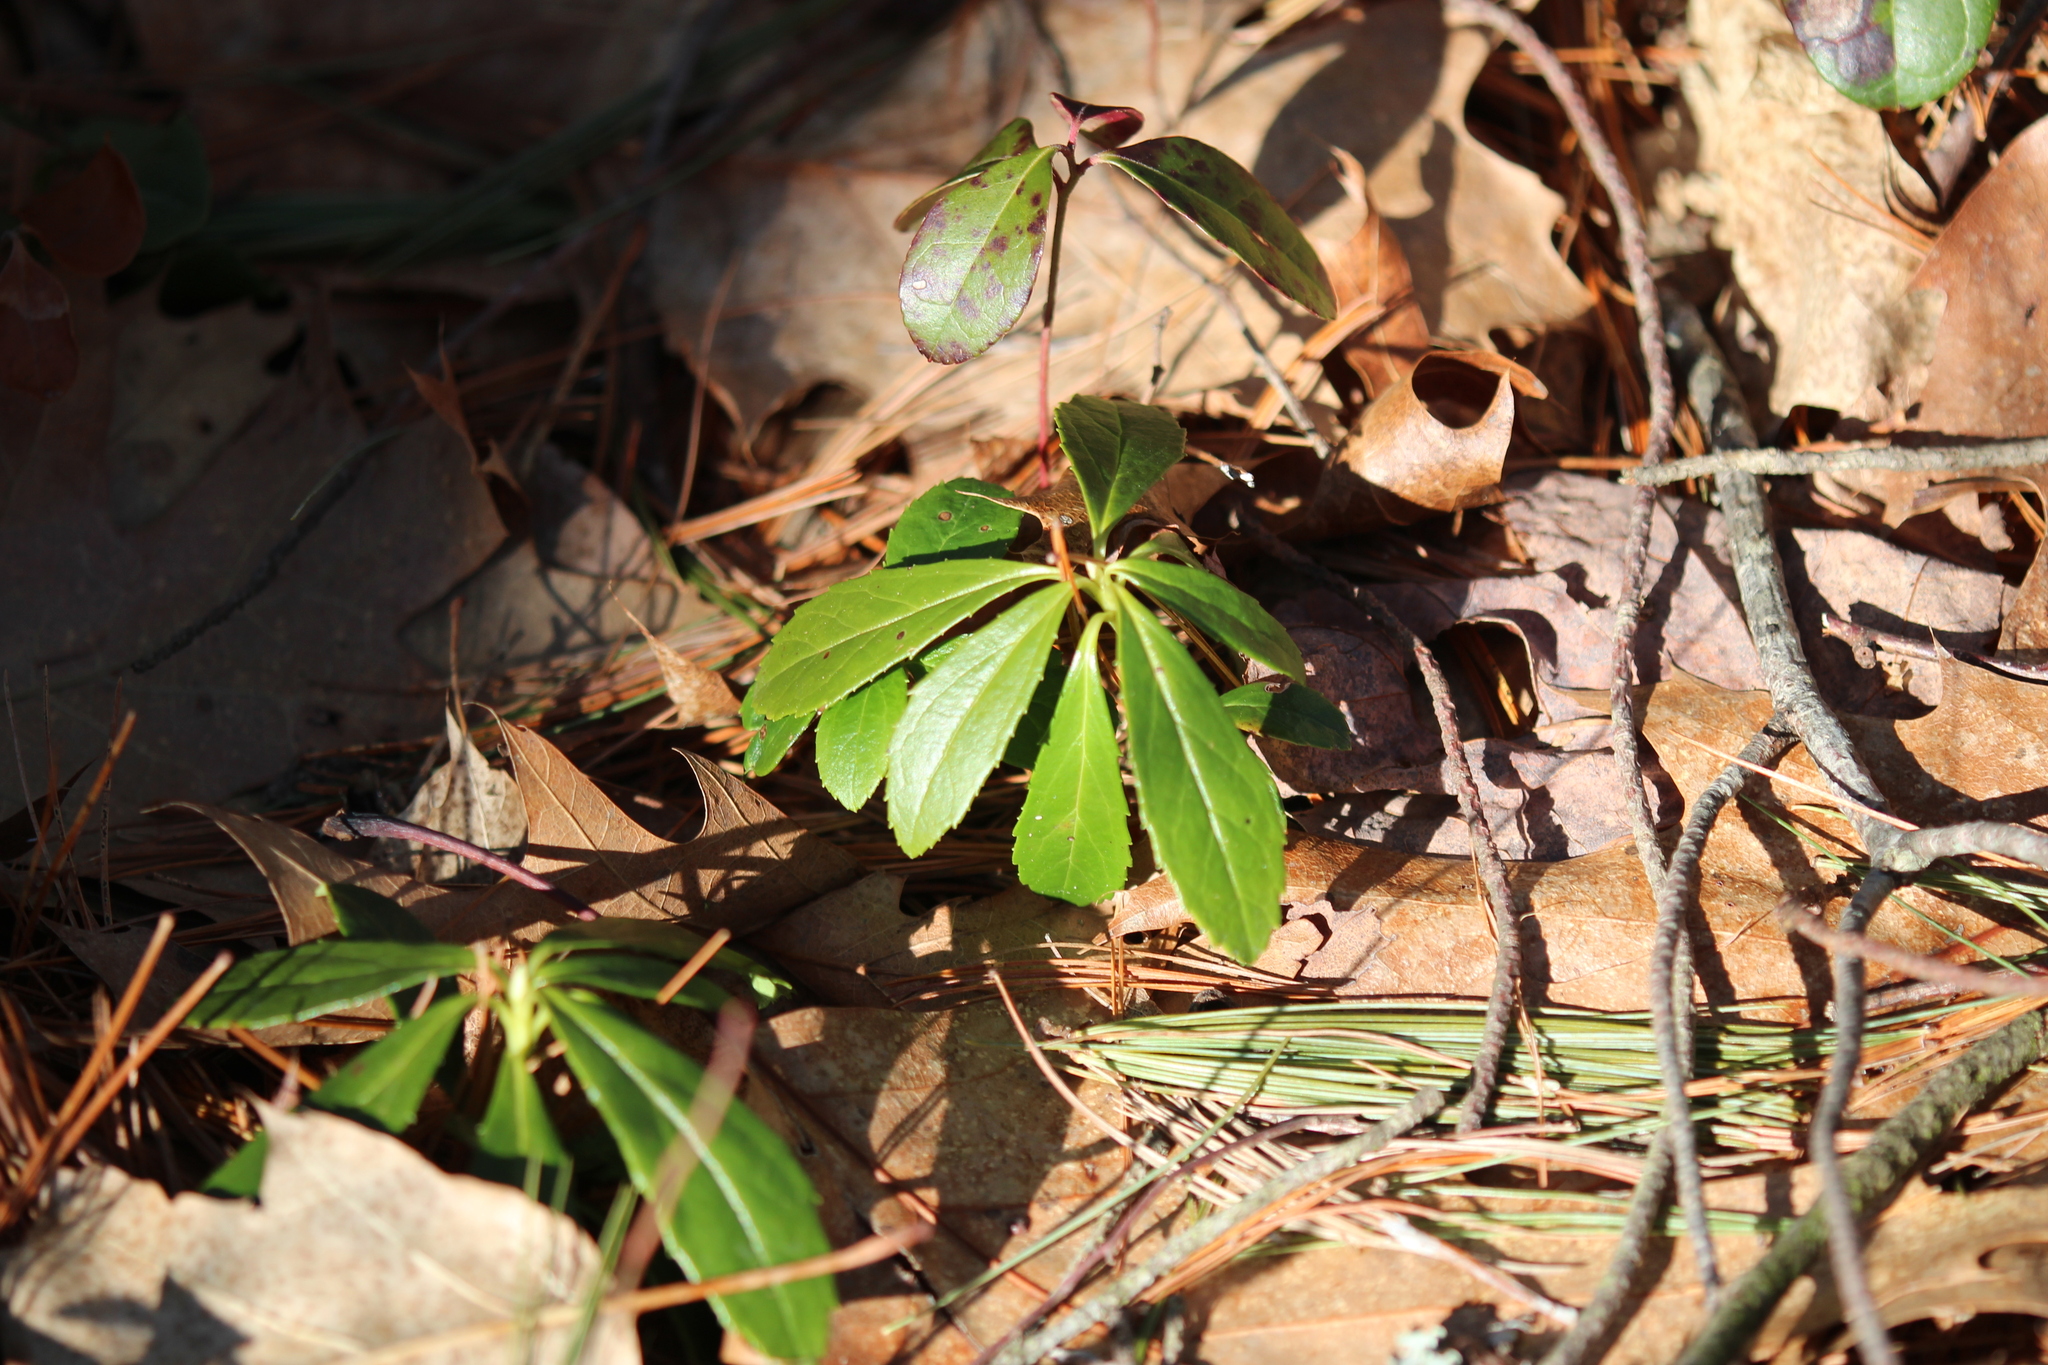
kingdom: Plantae
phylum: Tracheophyta
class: Magnoliopsida
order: Ericales
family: Ericaceae
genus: Chimaphila
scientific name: Chimaphila umbellata
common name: Pipsissewa
